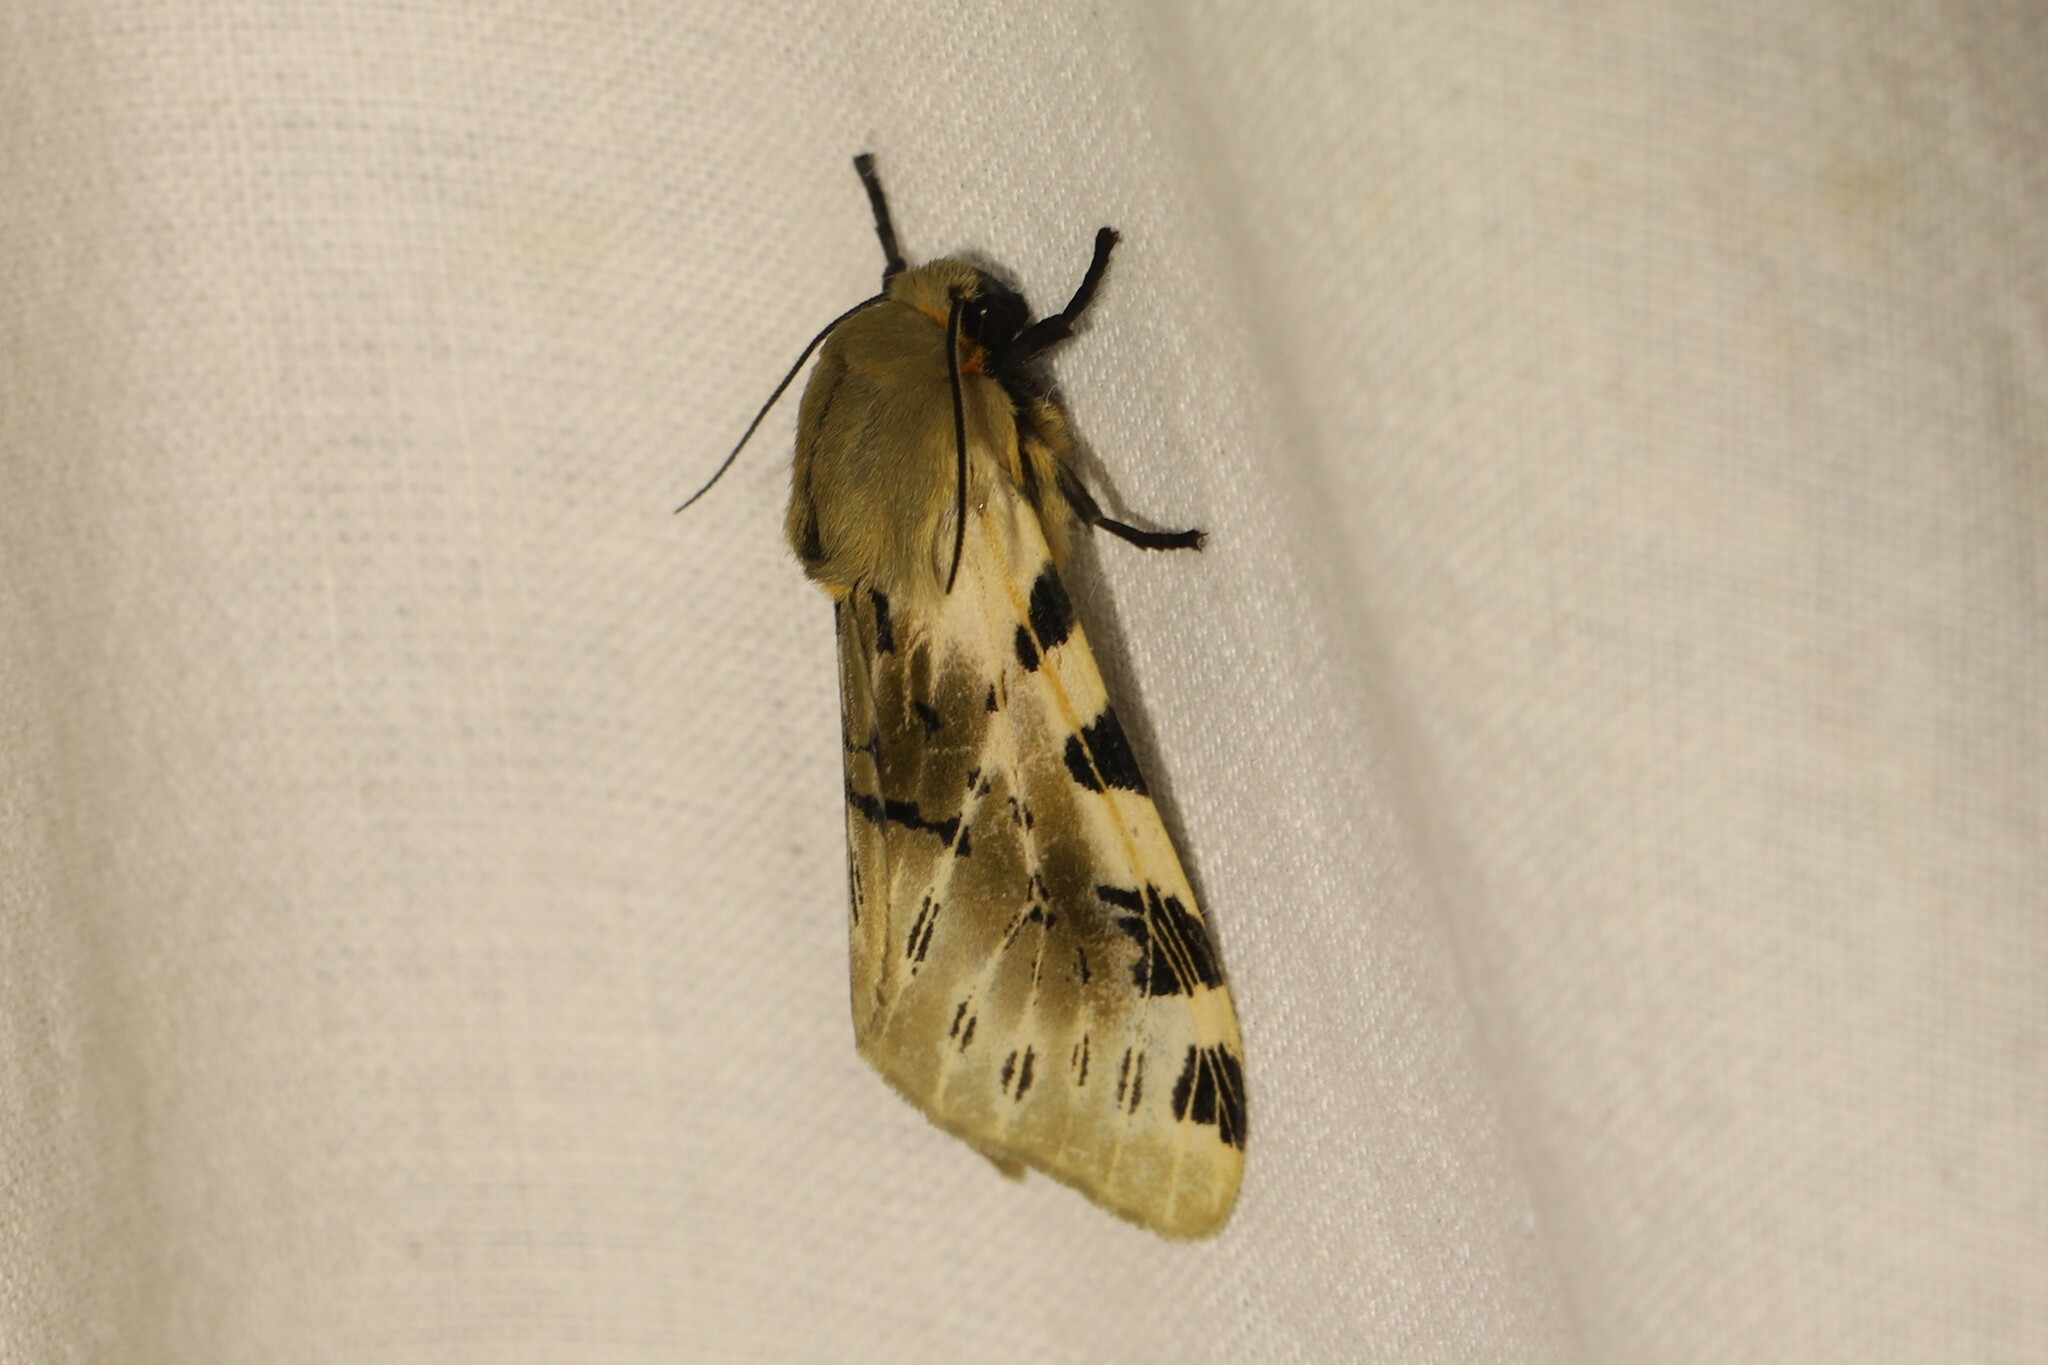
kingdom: Animalia
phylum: Arthropoda
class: Insecta
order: Lepidoptera
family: Erebidae
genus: Hypercompe
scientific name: Hypercompe nemophila
